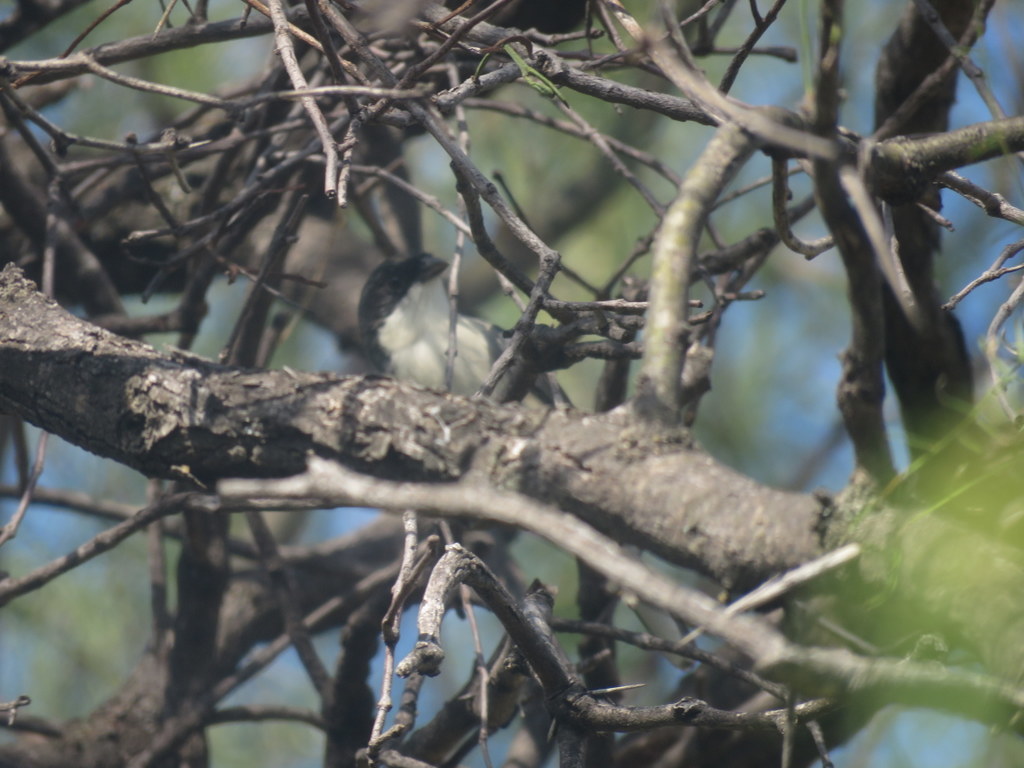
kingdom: Animalia
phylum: Chordata
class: Aves
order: Passeriformes
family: Thraupidae
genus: Microspingus
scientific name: Microspingus melanoleucus
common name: Black-capped warbling-finch
